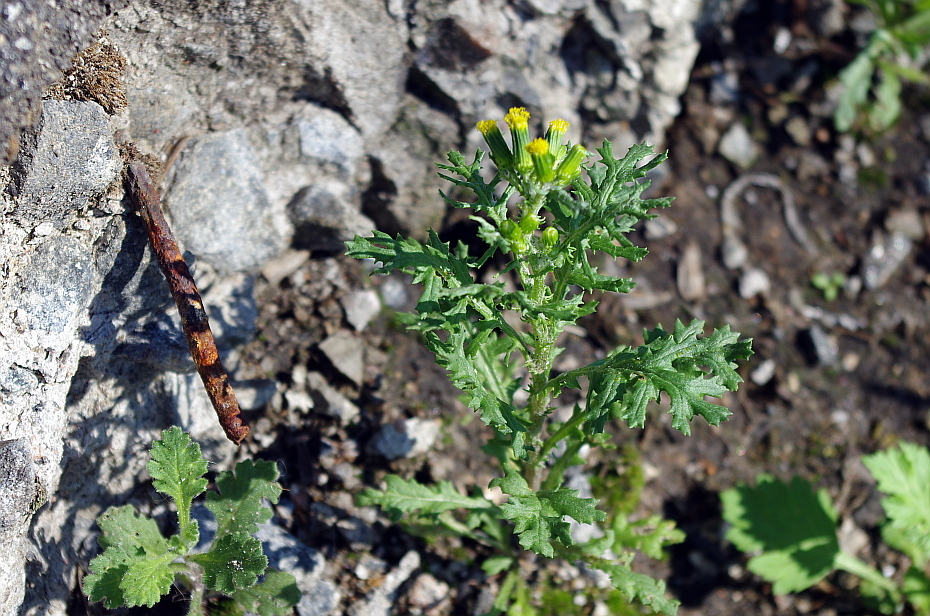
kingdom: Plantae
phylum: Tracheophyta
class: Magnoliopsida
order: Asterales
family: Asteraceae
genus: Senecio
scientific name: Senecio vulgaris
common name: Old-man-in-the-spring
